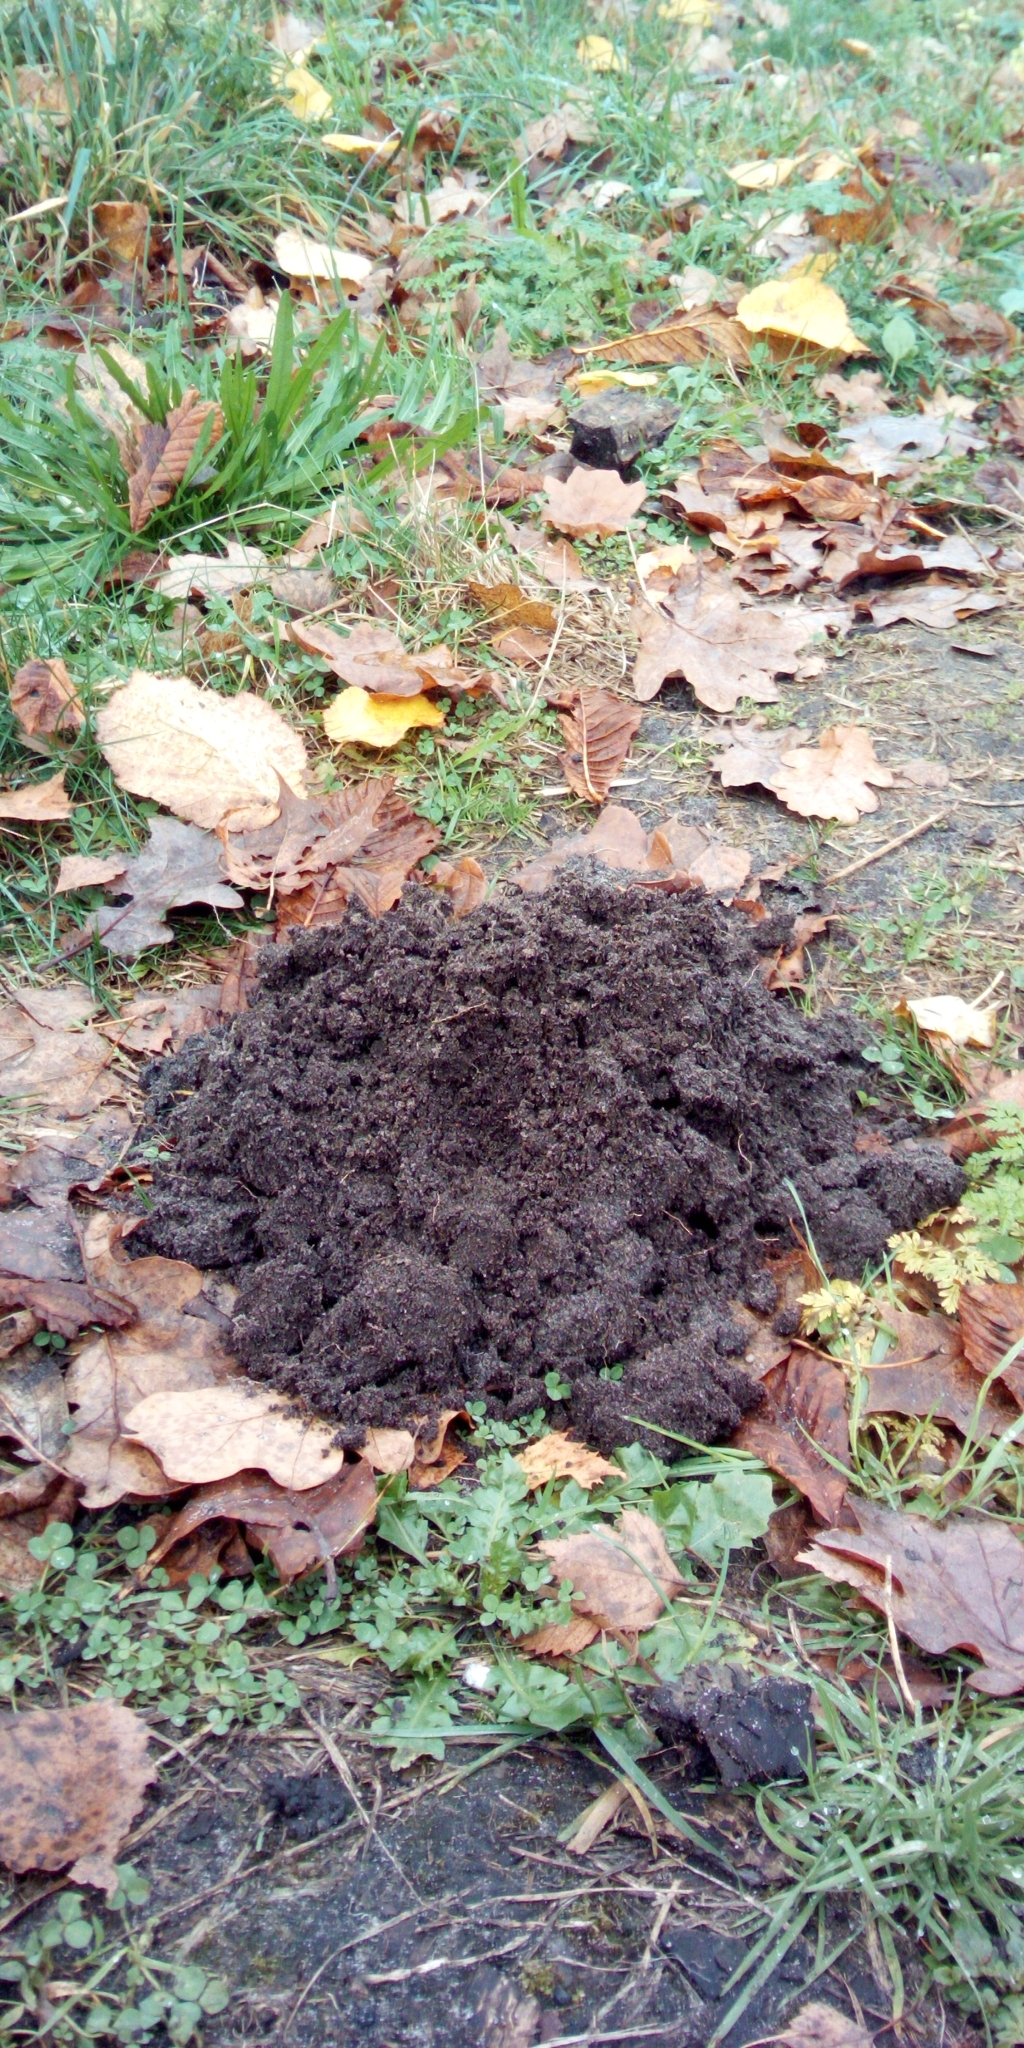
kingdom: Animalia
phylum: Chordata
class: Mammalia
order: Soricomorpha
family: Talpidae
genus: Talpa
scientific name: Talpa europaea
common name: European mole
